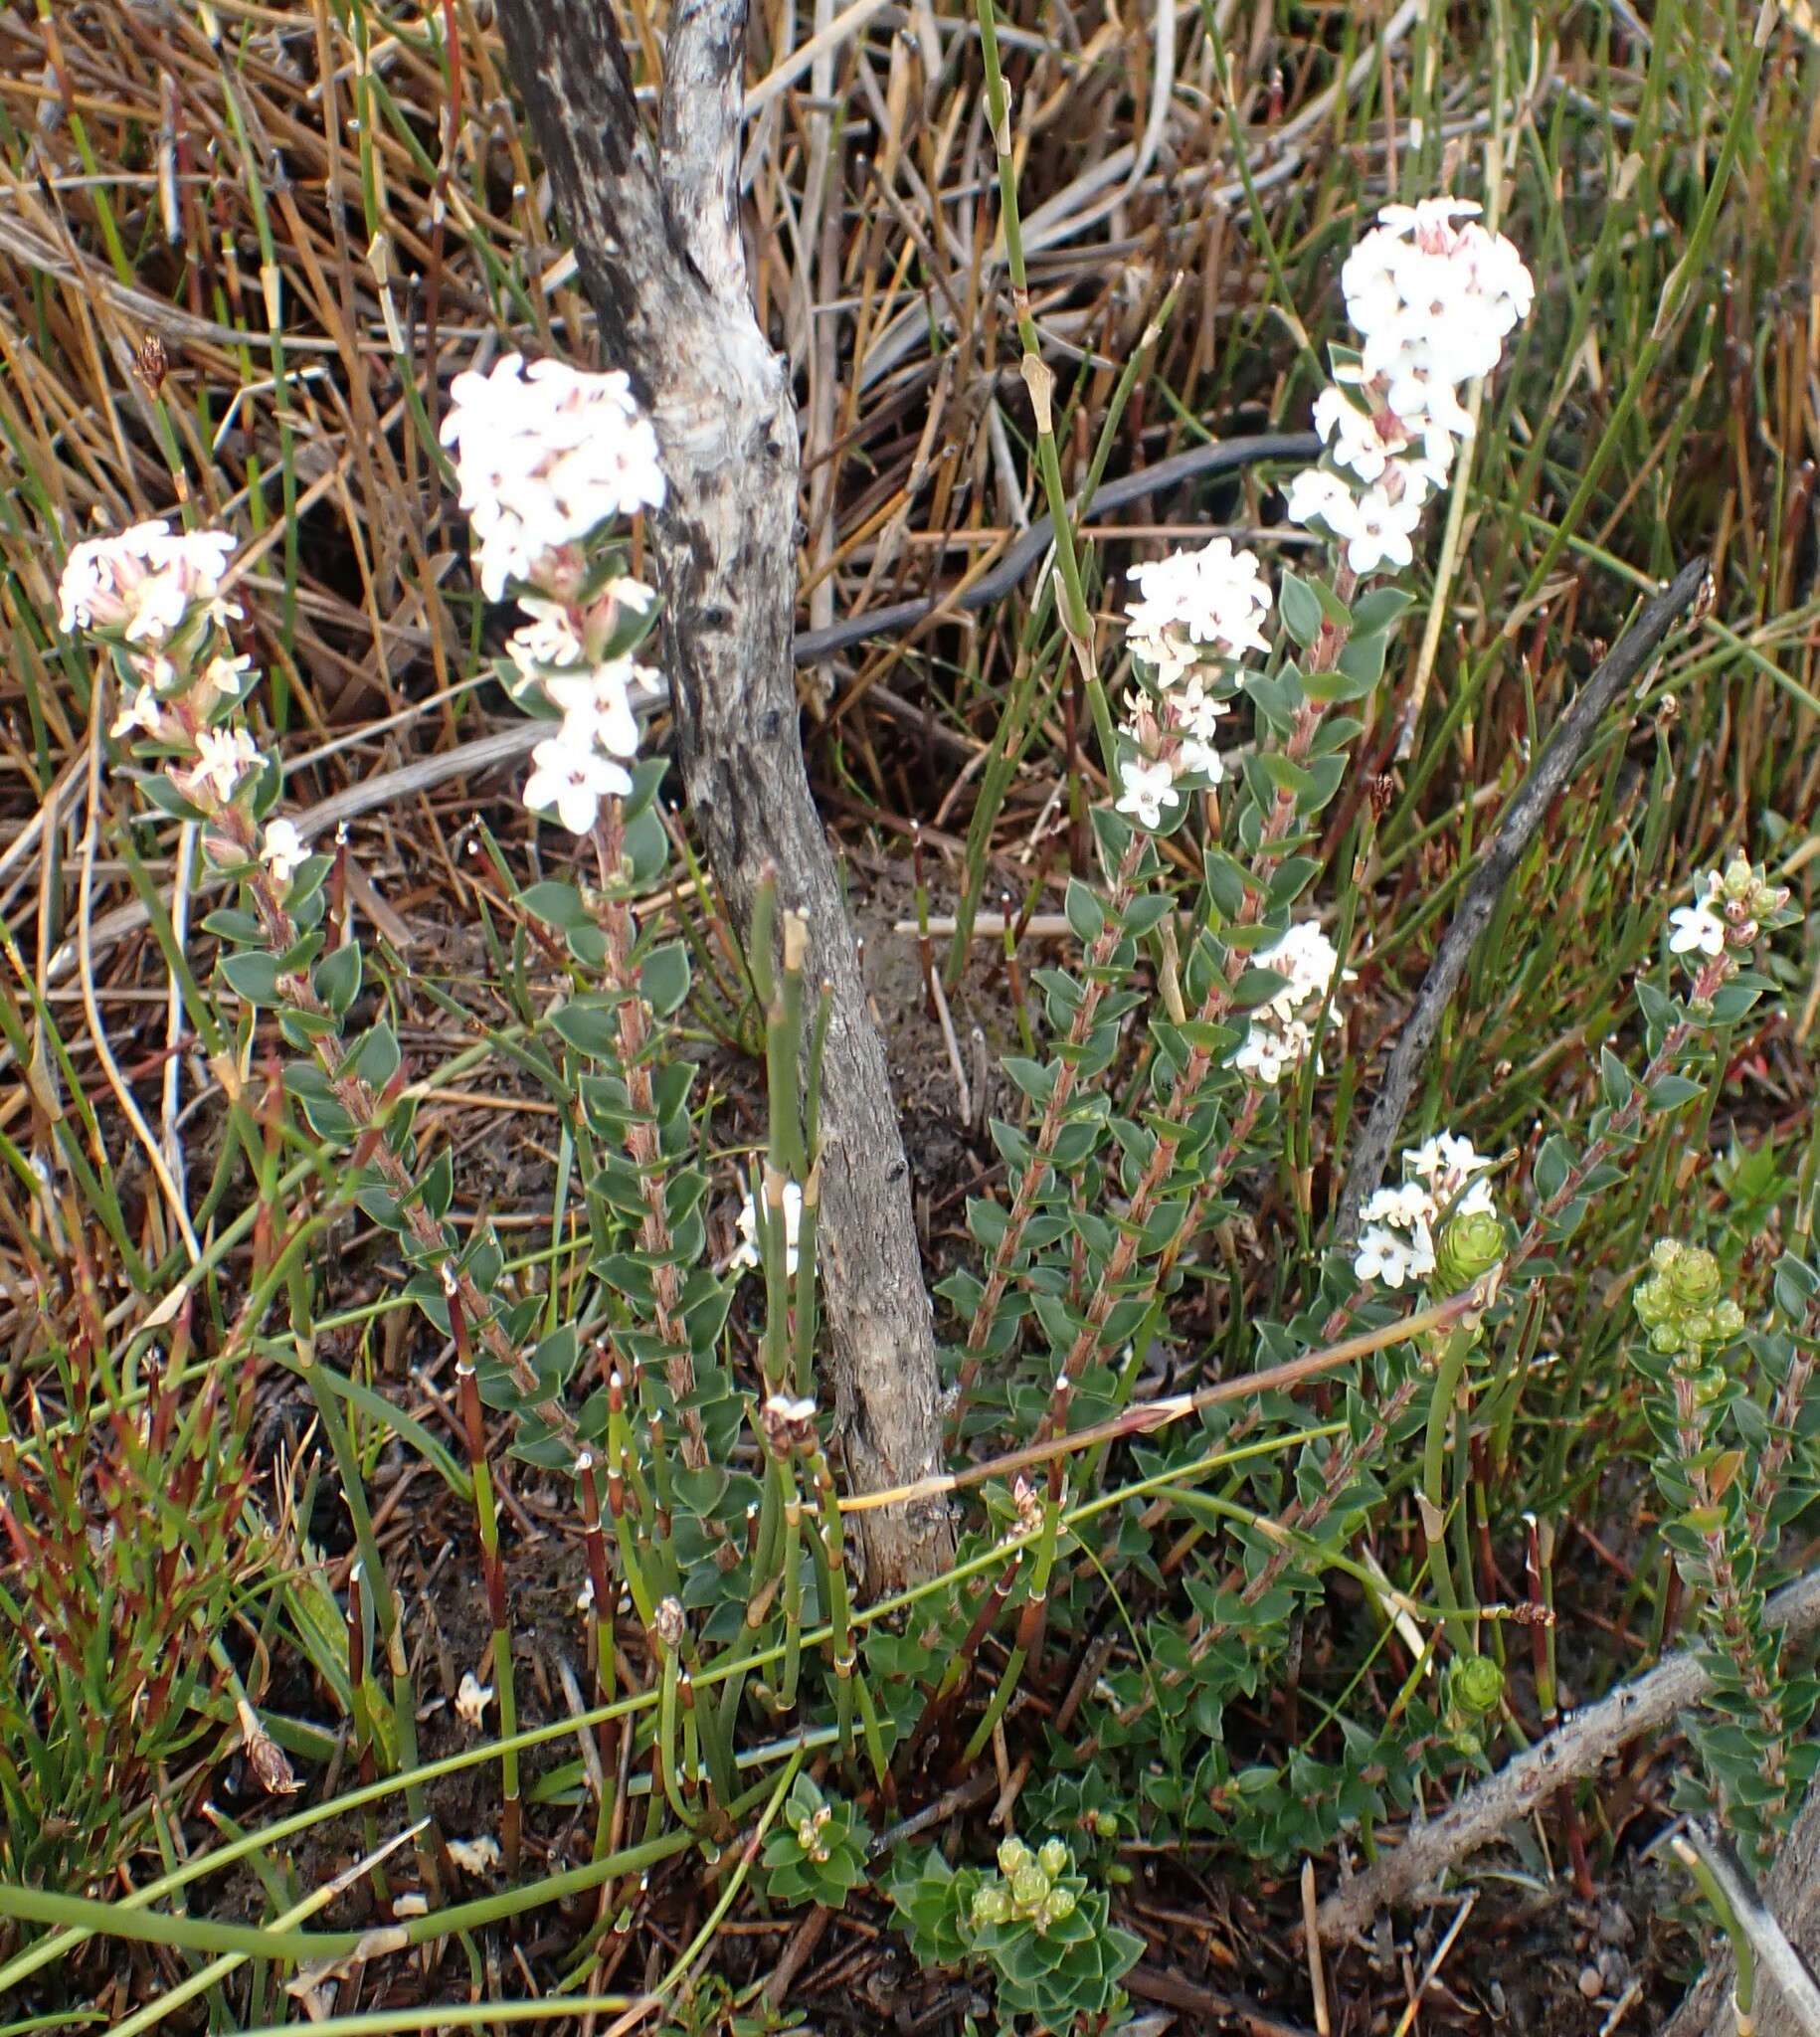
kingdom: Plantae
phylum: Tracheophyta
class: Magnoliopsida
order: Ericales
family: Ericaceae
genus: Epacris
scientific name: Epacris curtisiae
